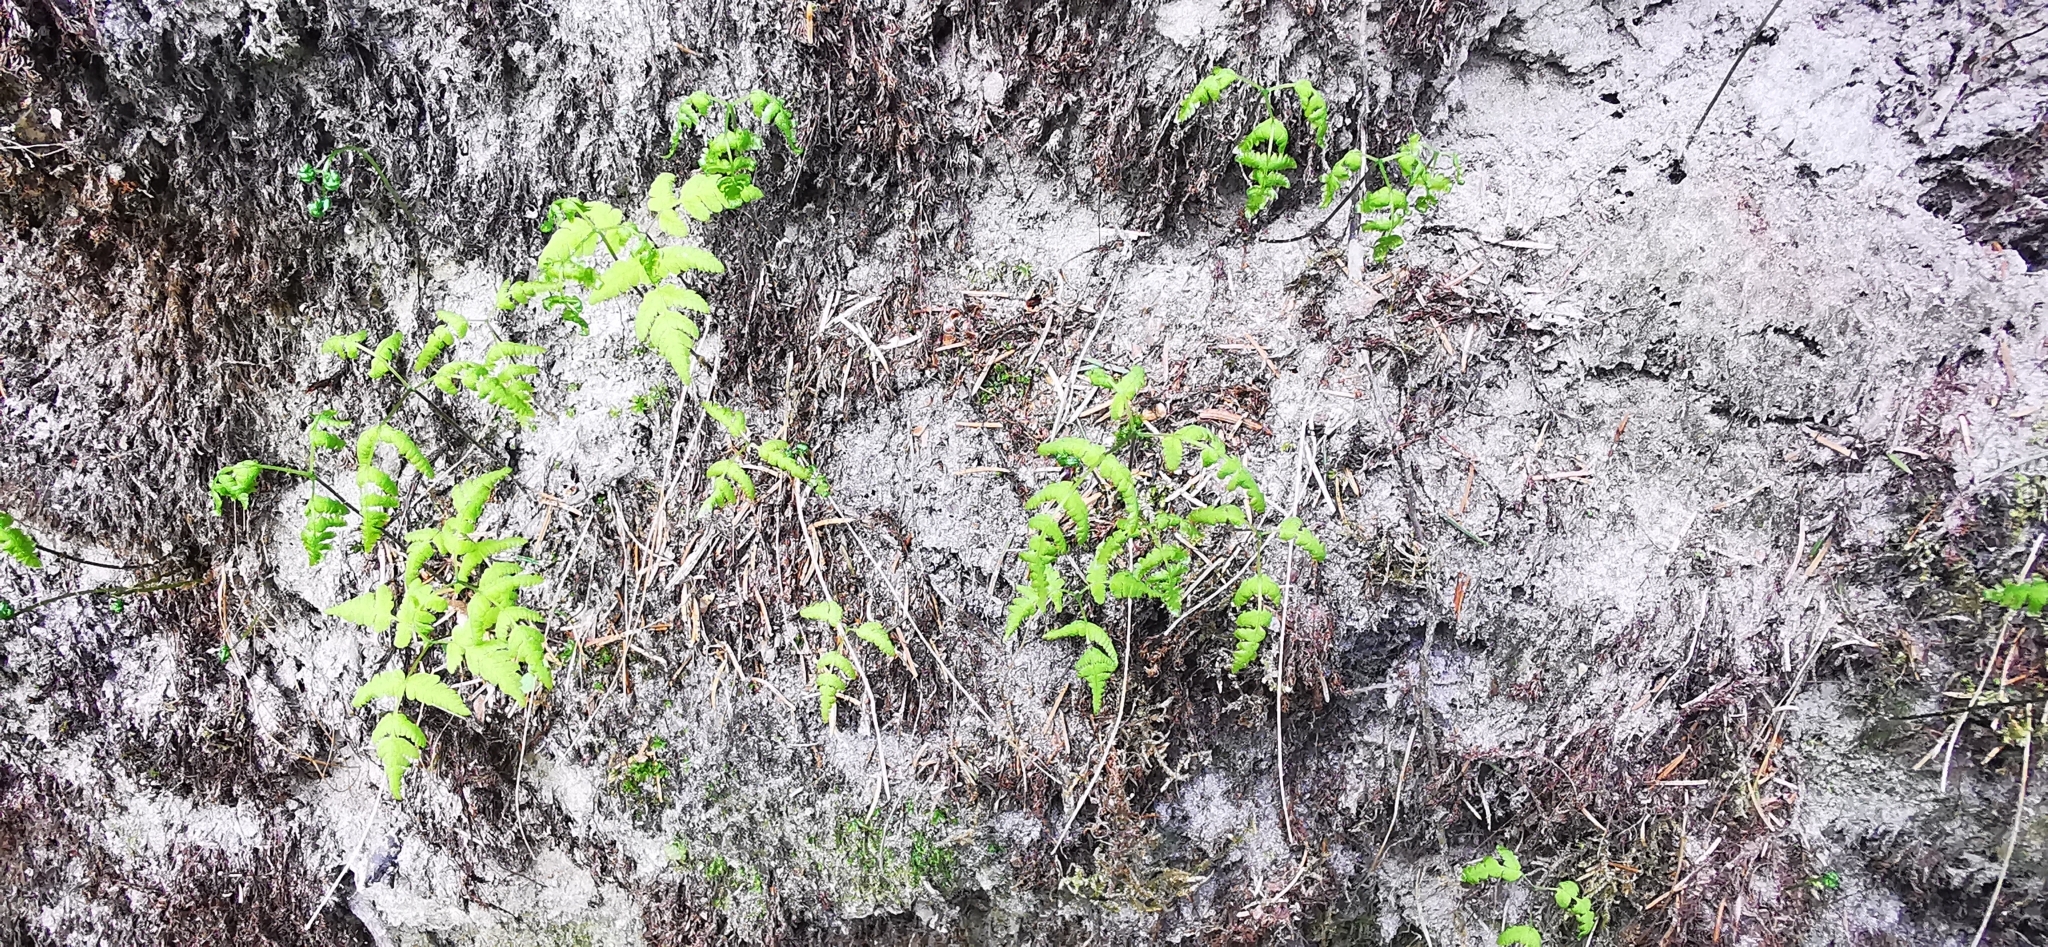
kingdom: Plantae
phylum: Tracheophyta
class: Polypodiopsida
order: Polypodiales
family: Cystopteridaceae
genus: Gymnocarpium
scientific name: Gymnocarpium dryopteris
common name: Oak fern
